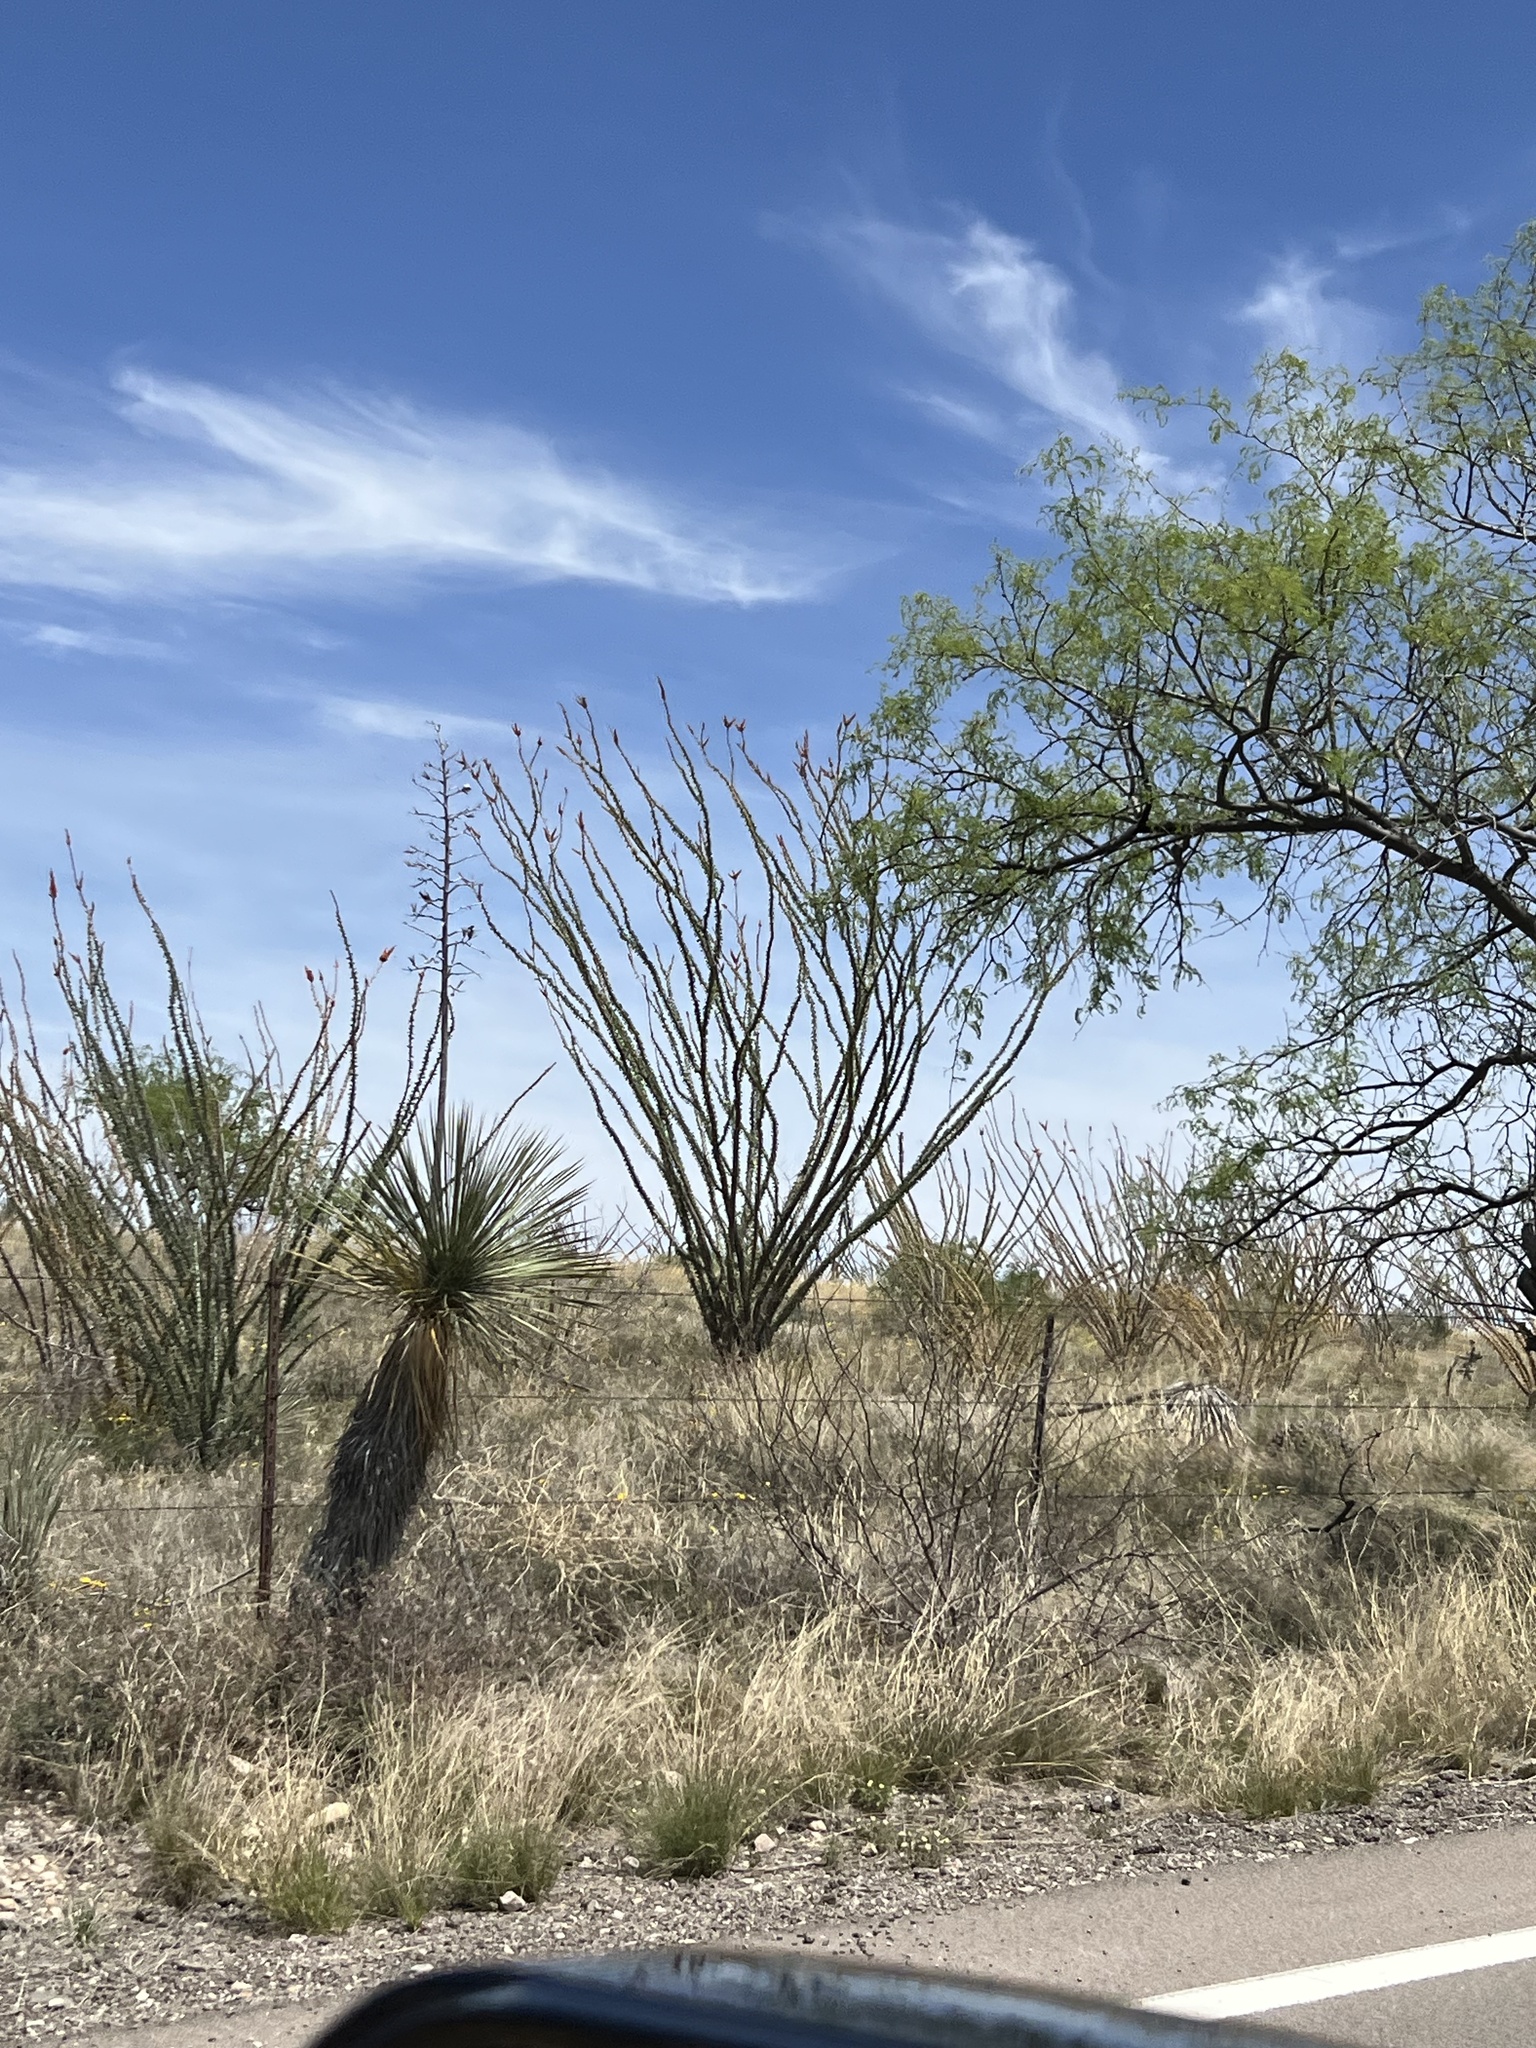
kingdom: Plantae
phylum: Tracheophyta
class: Magnoliopsida
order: Ericales
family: Fouquieriaceae
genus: Fouquieria
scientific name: Fouquieria splendens
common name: Vine-cactus
